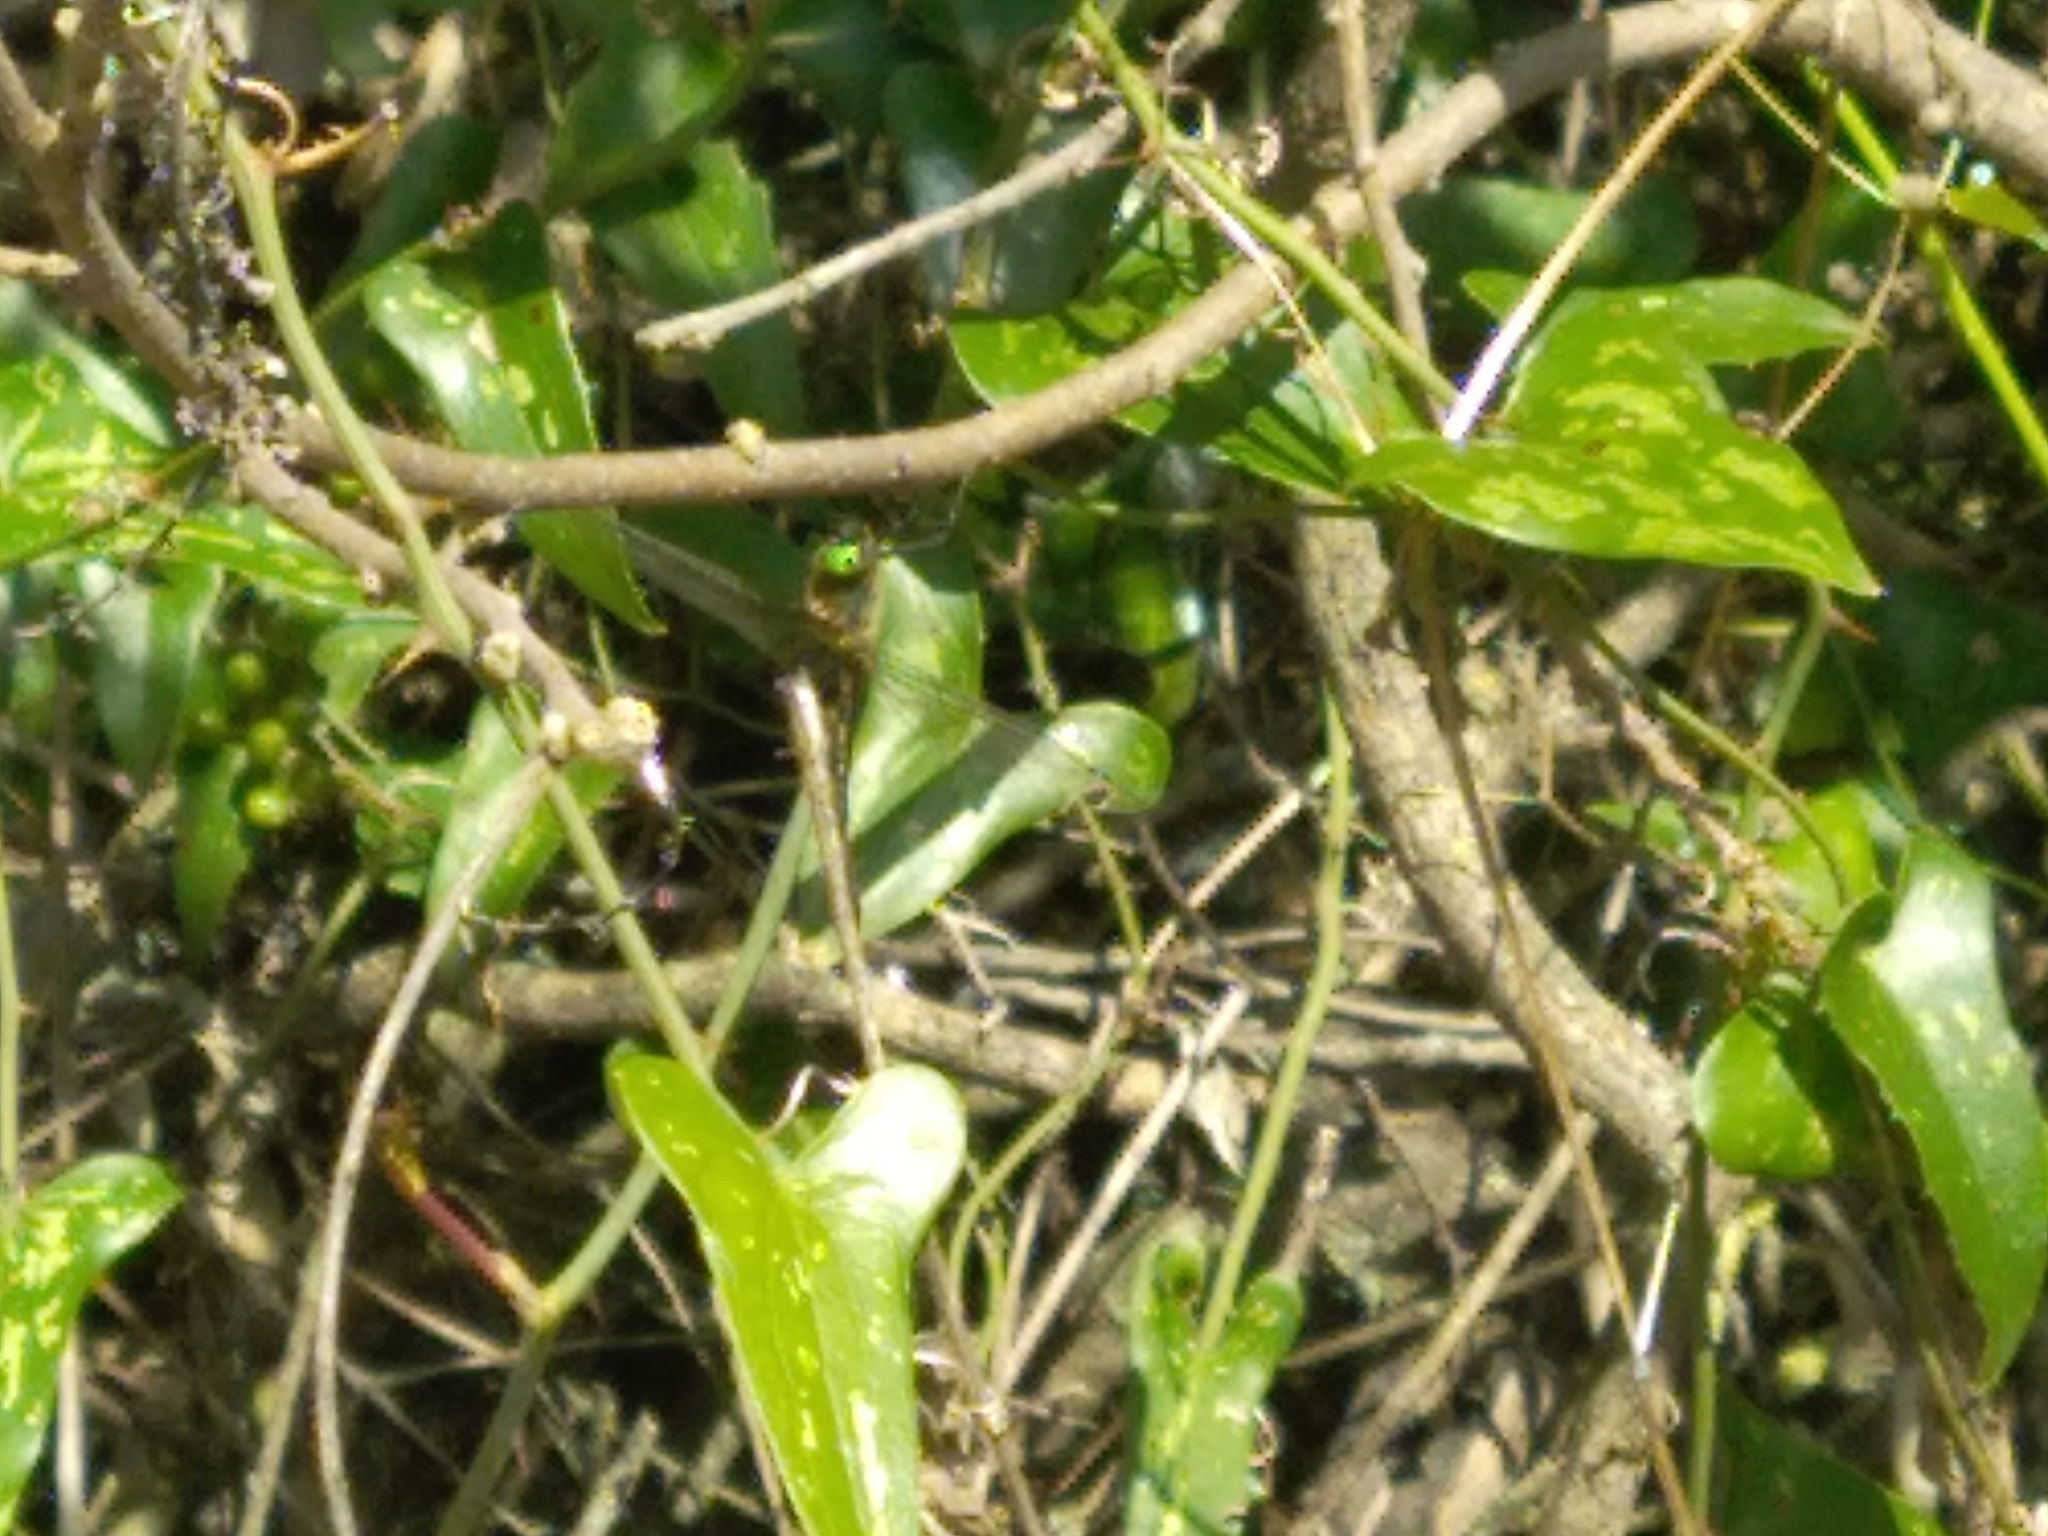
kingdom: Animalia
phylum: Arthropoda
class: Insecta
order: Odonata
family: Corduliidae
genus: Oxygastra
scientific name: Oxygastra curtisii
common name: Orange-spotted emerald
